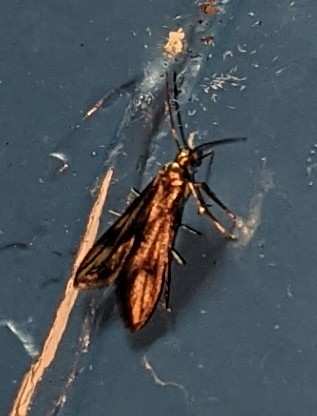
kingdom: Animalia
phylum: Arthropoda
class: Insecta
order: Lepidoptera
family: Schreckensteiniidae
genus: Schreckensteinia
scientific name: Schreckensteinia festaliella
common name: Blackberry skeletonizer
